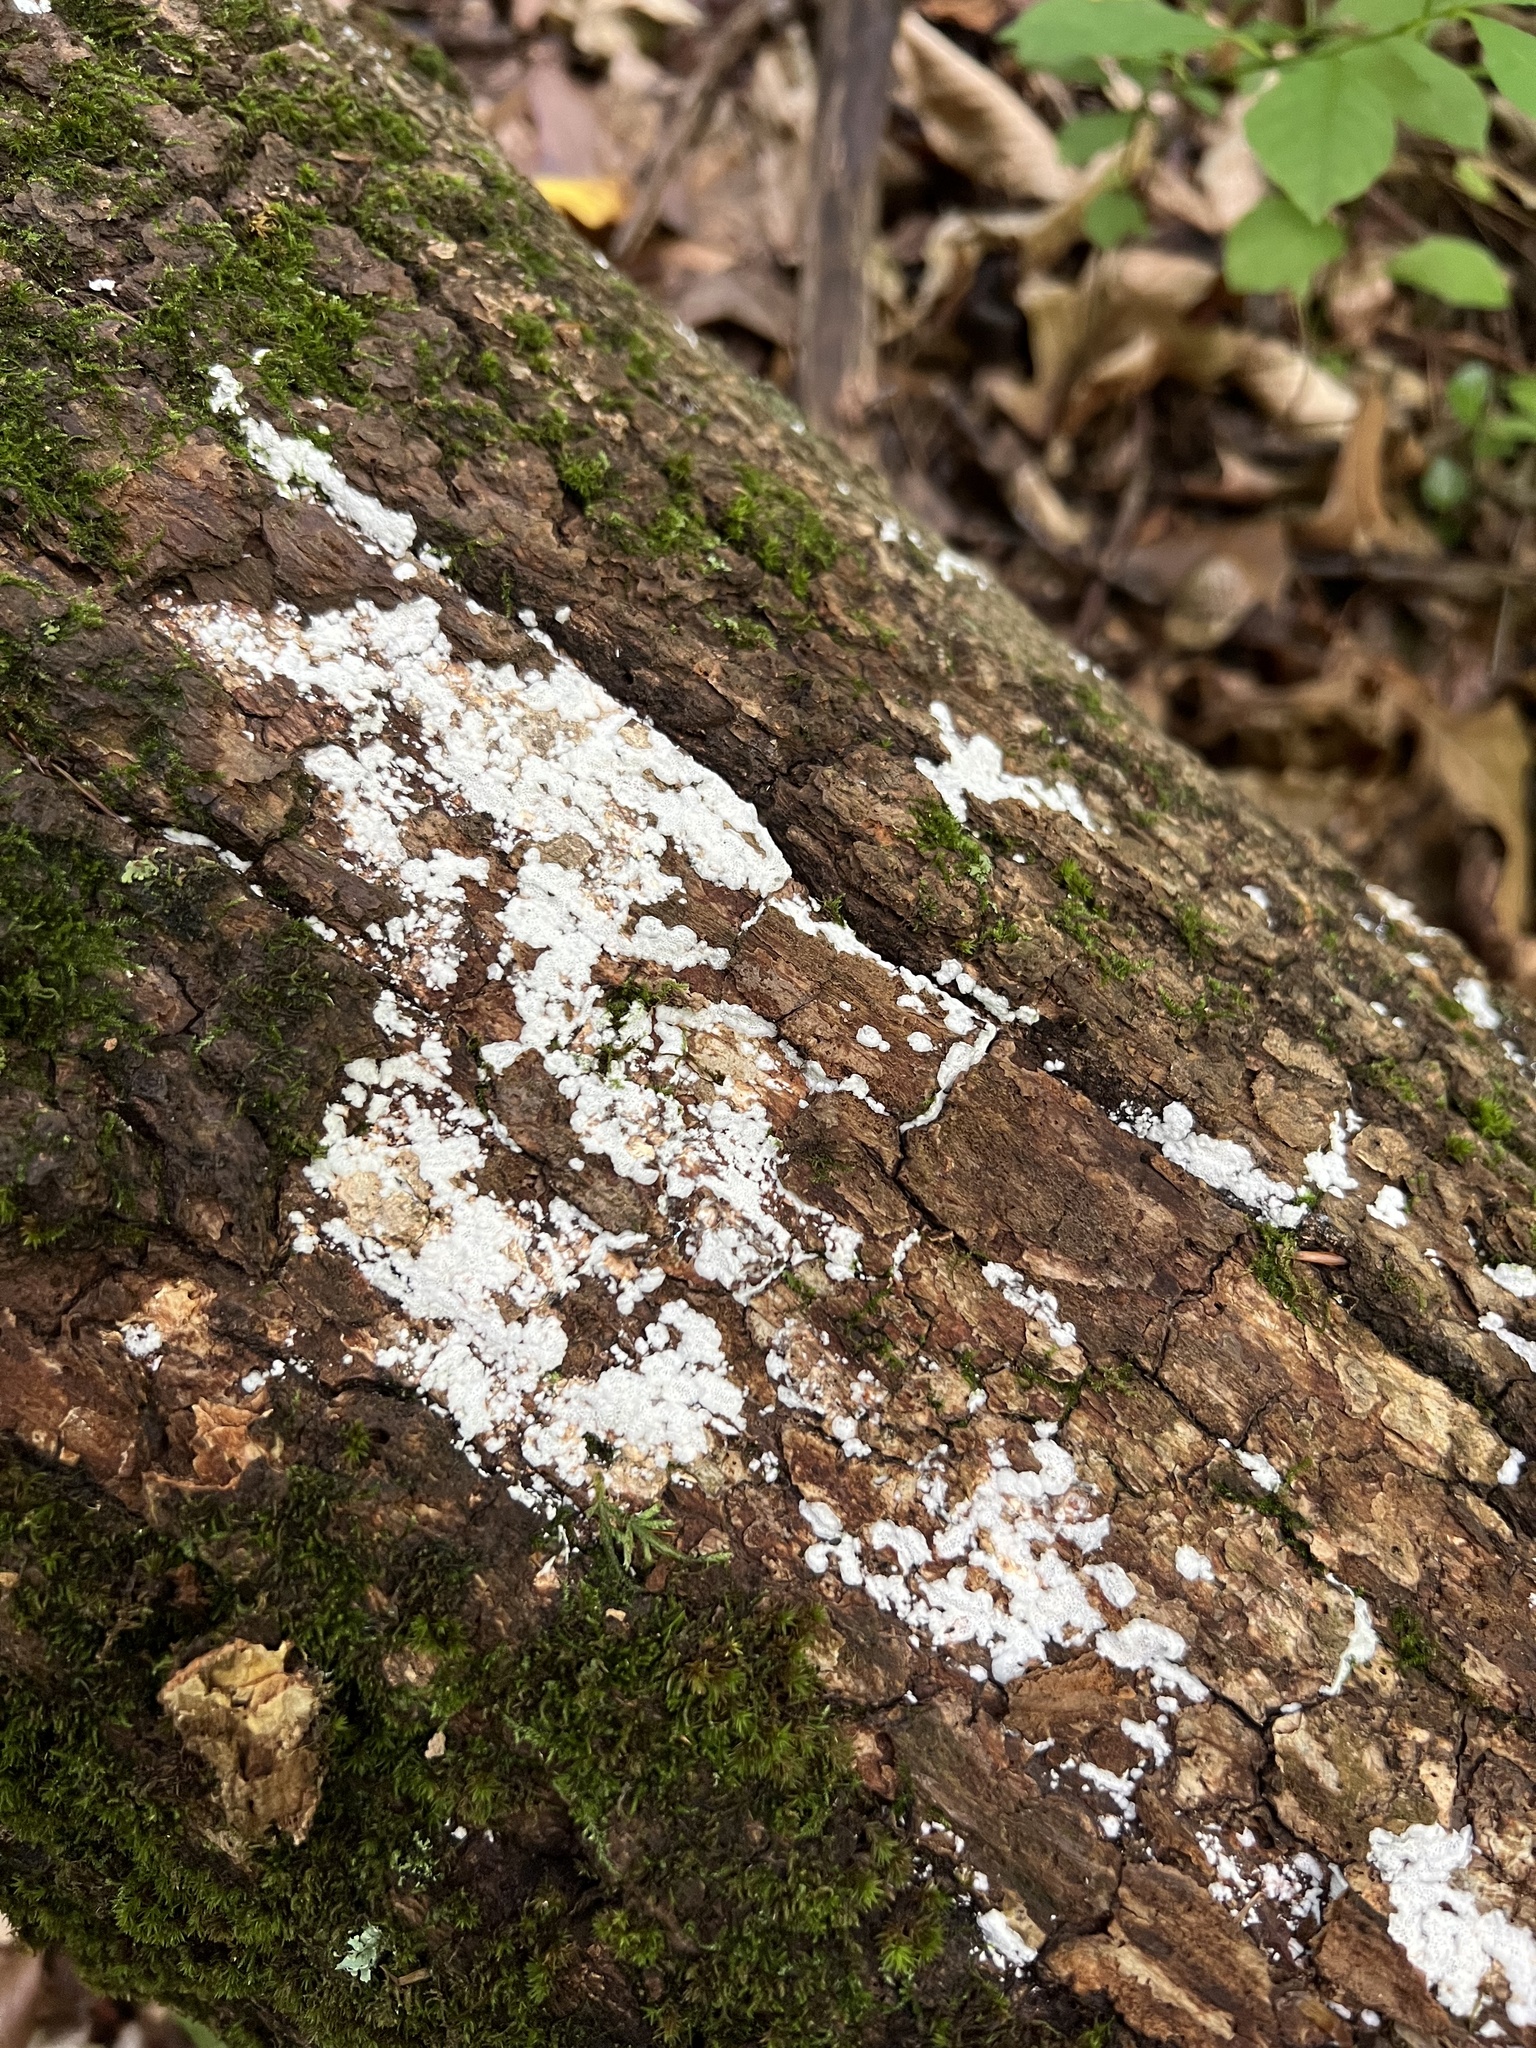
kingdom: Protozoa
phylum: Mycetozoa
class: Protosteliomycetes
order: Ceratiomyxales
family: Ceratiomyxaceae
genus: Ceratiomyxa
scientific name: Ceratiomyxa fruticulosa
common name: Honeycomb coral slime mold
